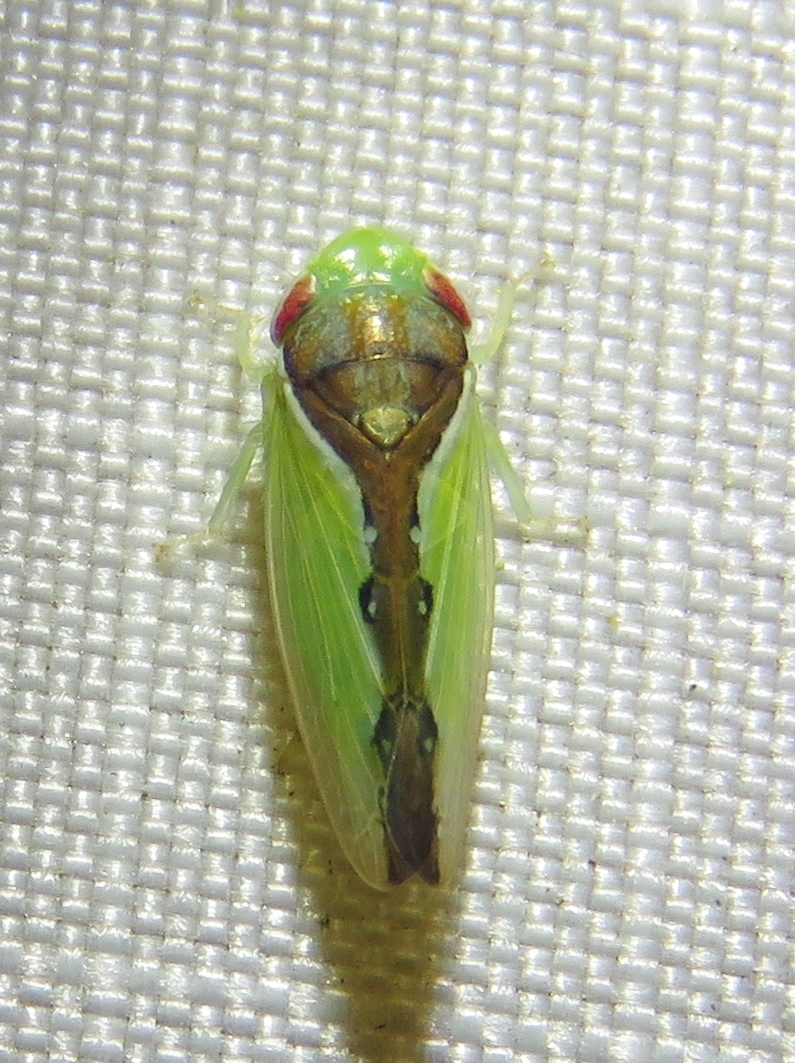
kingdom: Animalia
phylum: Arthropoda
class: Insecta
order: Hemiptera
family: Cicadellidae
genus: Omansobara ing
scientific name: Omansobara ing Omansobara palliolata
